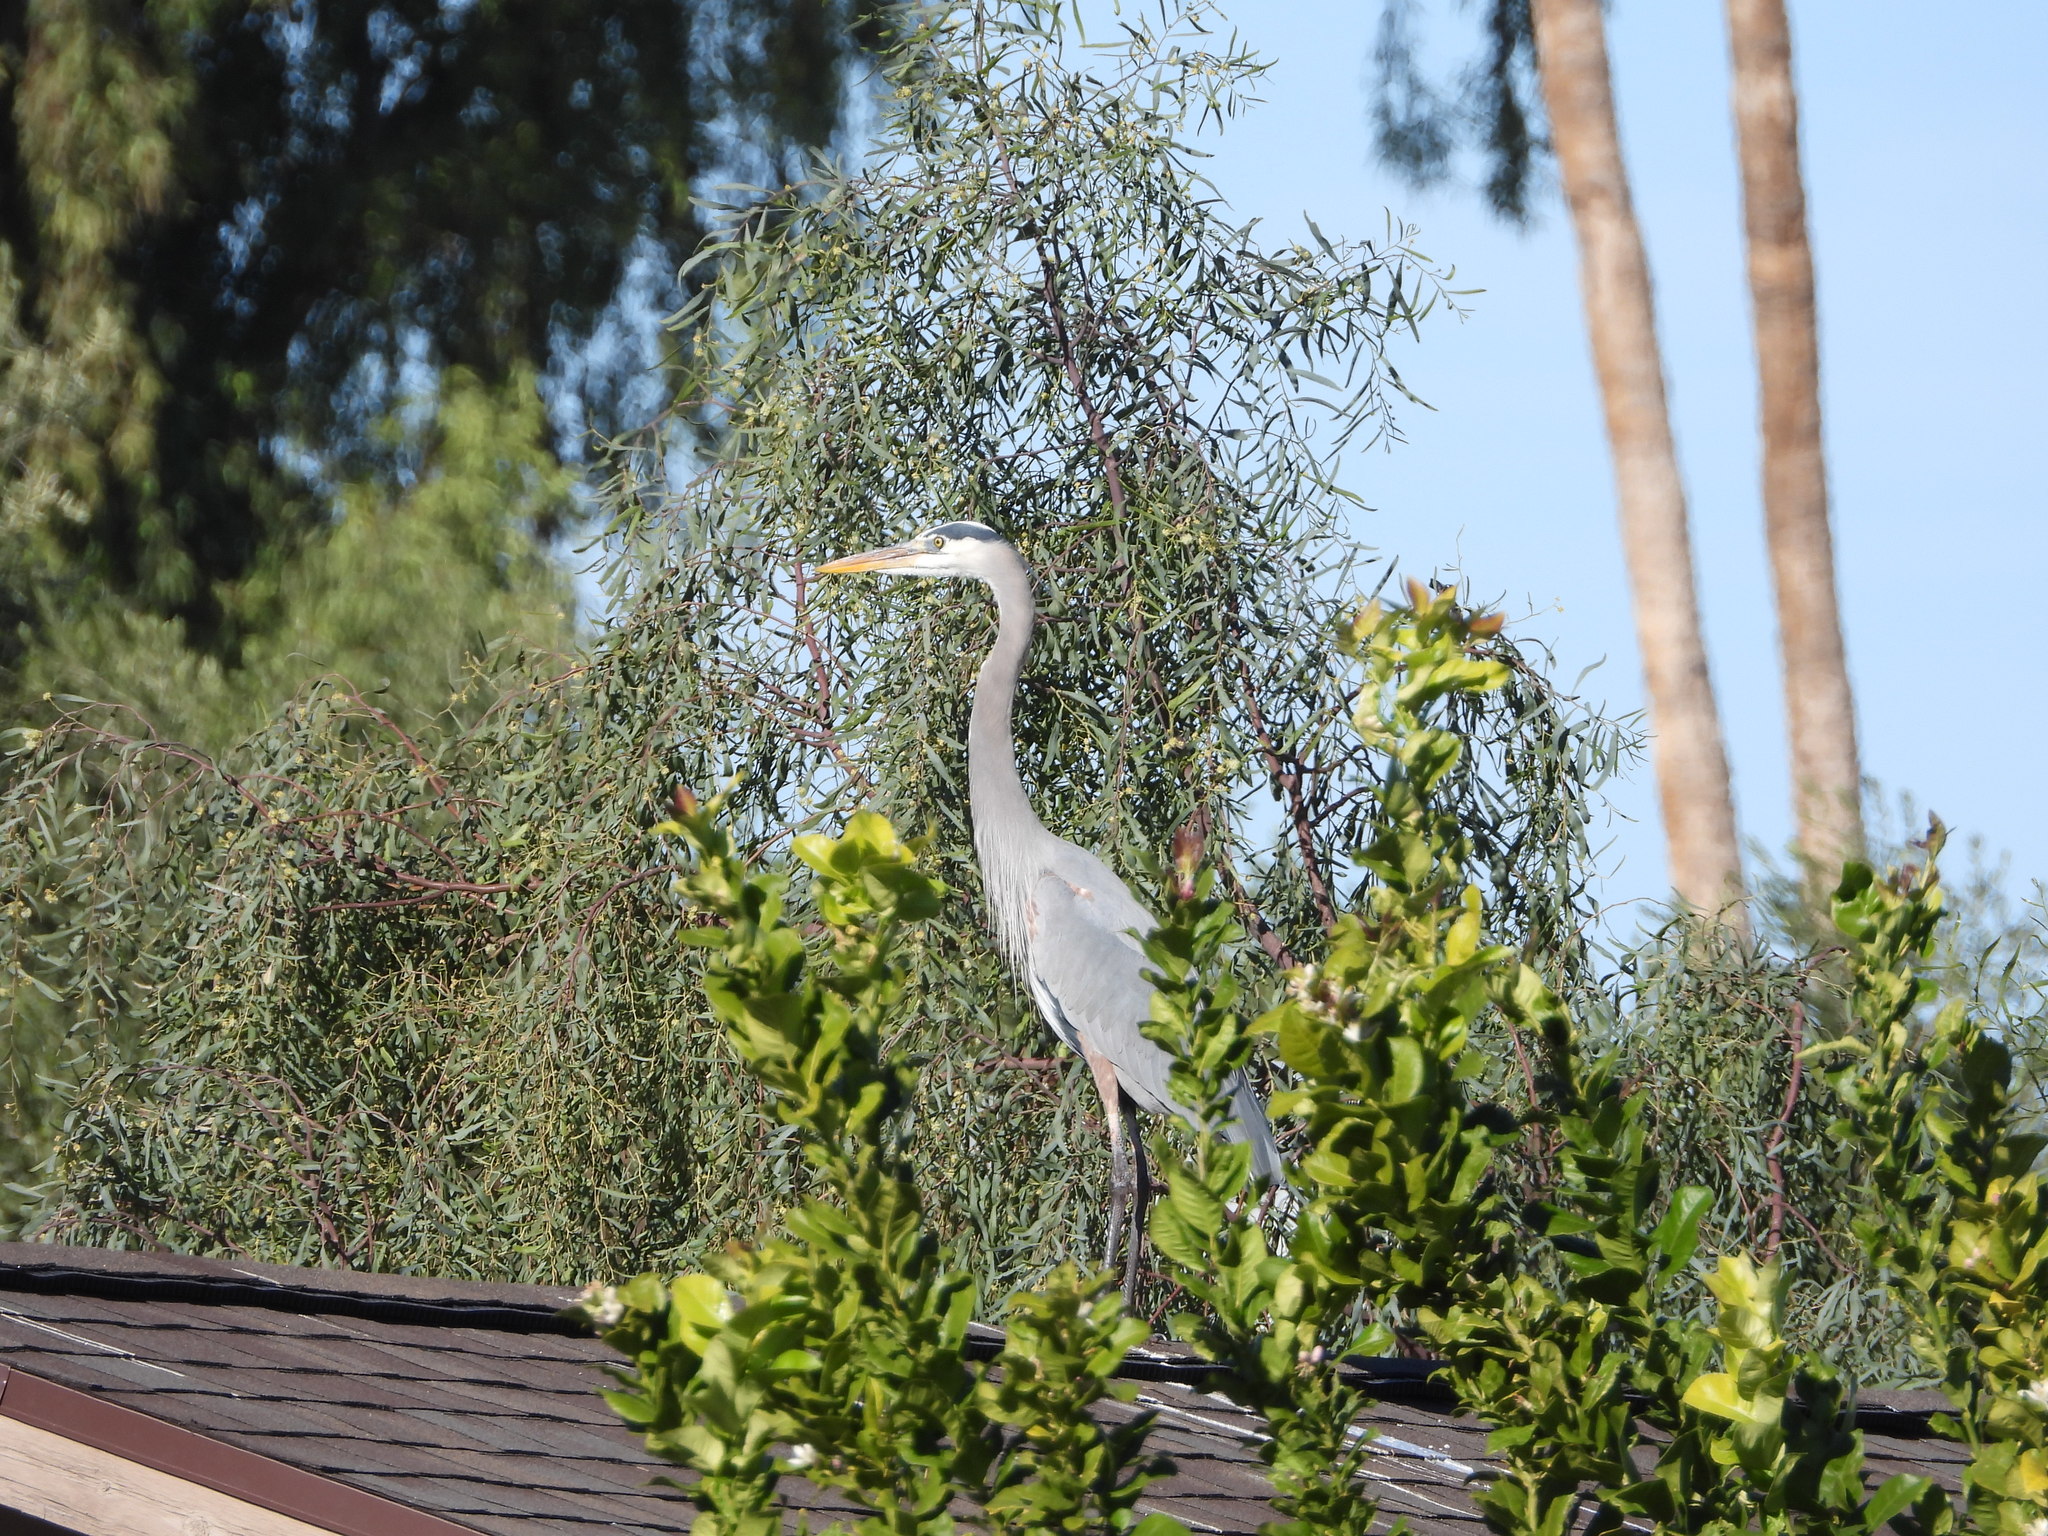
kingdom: Animalia
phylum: Chordata
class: Aves
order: Pelecaniformes
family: Ardeidae
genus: Ardea
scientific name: Ardea herodias
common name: Great blue heron
